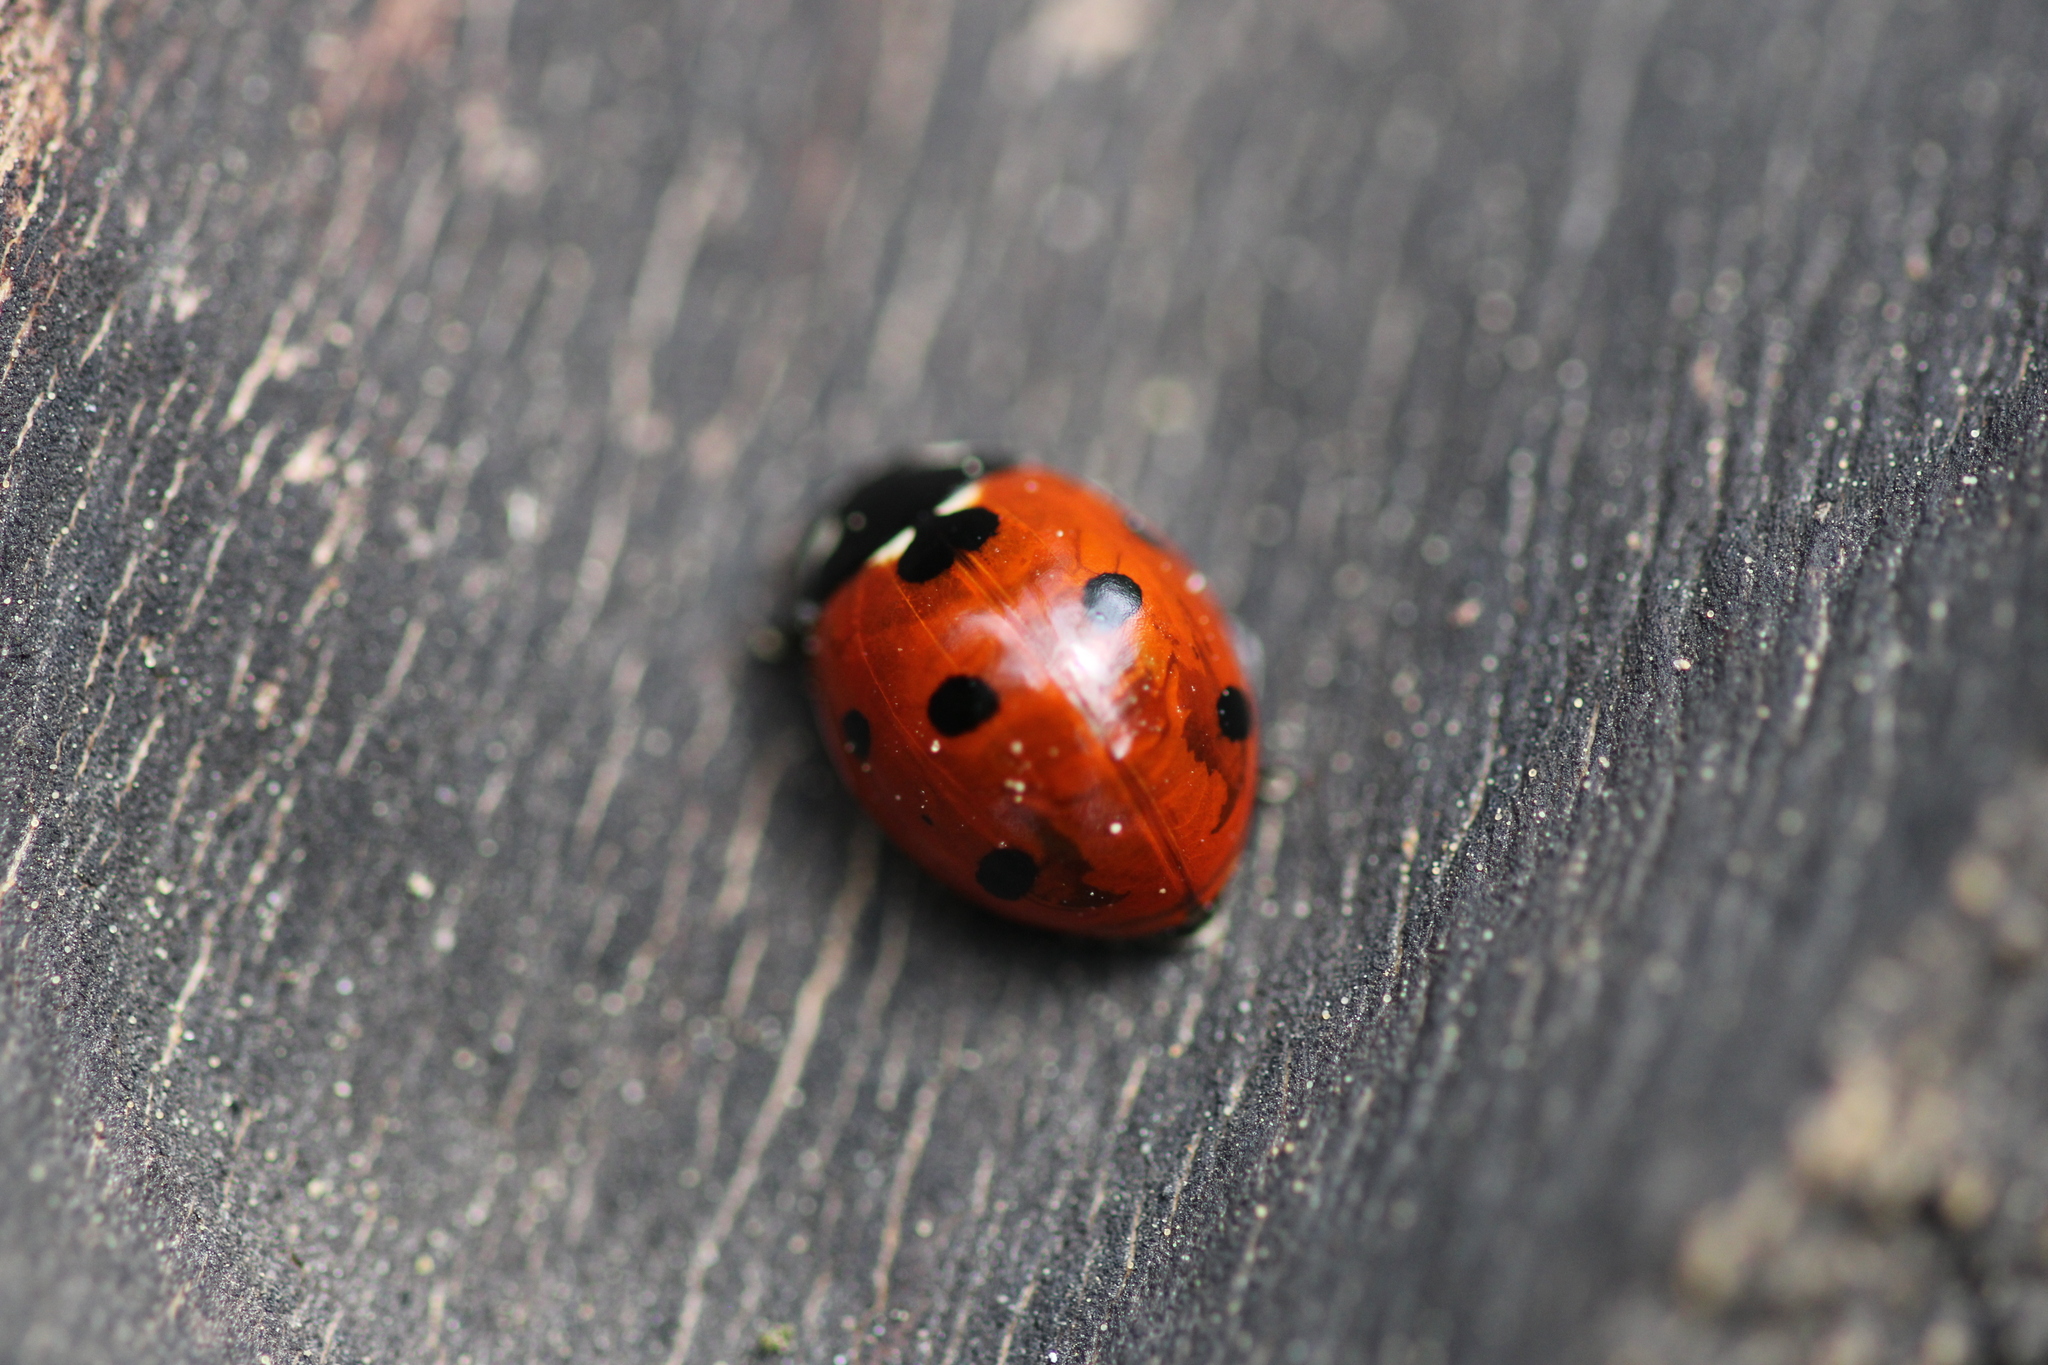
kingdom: Animalia
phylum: Arthropoda
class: Insecta
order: Coleoptera
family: Coccinellidae
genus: Coccinella
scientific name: Coccinella septempunctata
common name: Sevenspotted lady beetle
